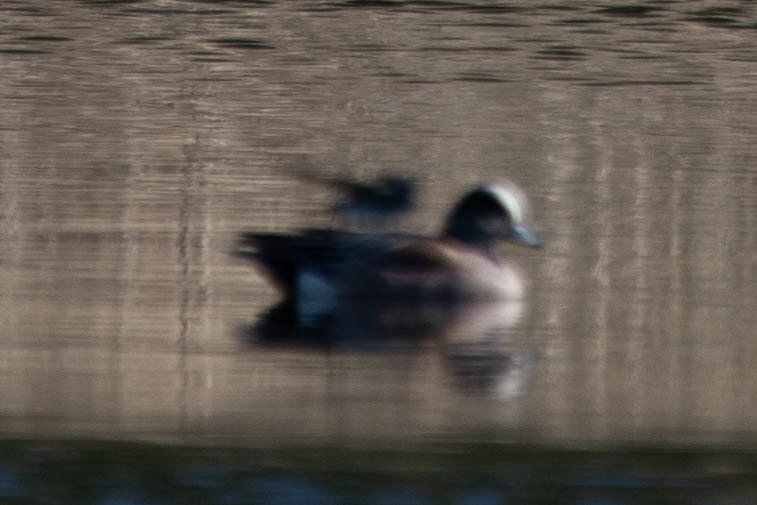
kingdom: Animalia
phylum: Chordata
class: Aves
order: Anseriformes
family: Anatidae
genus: Mareca
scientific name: Mareca americana
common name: American wigeon
